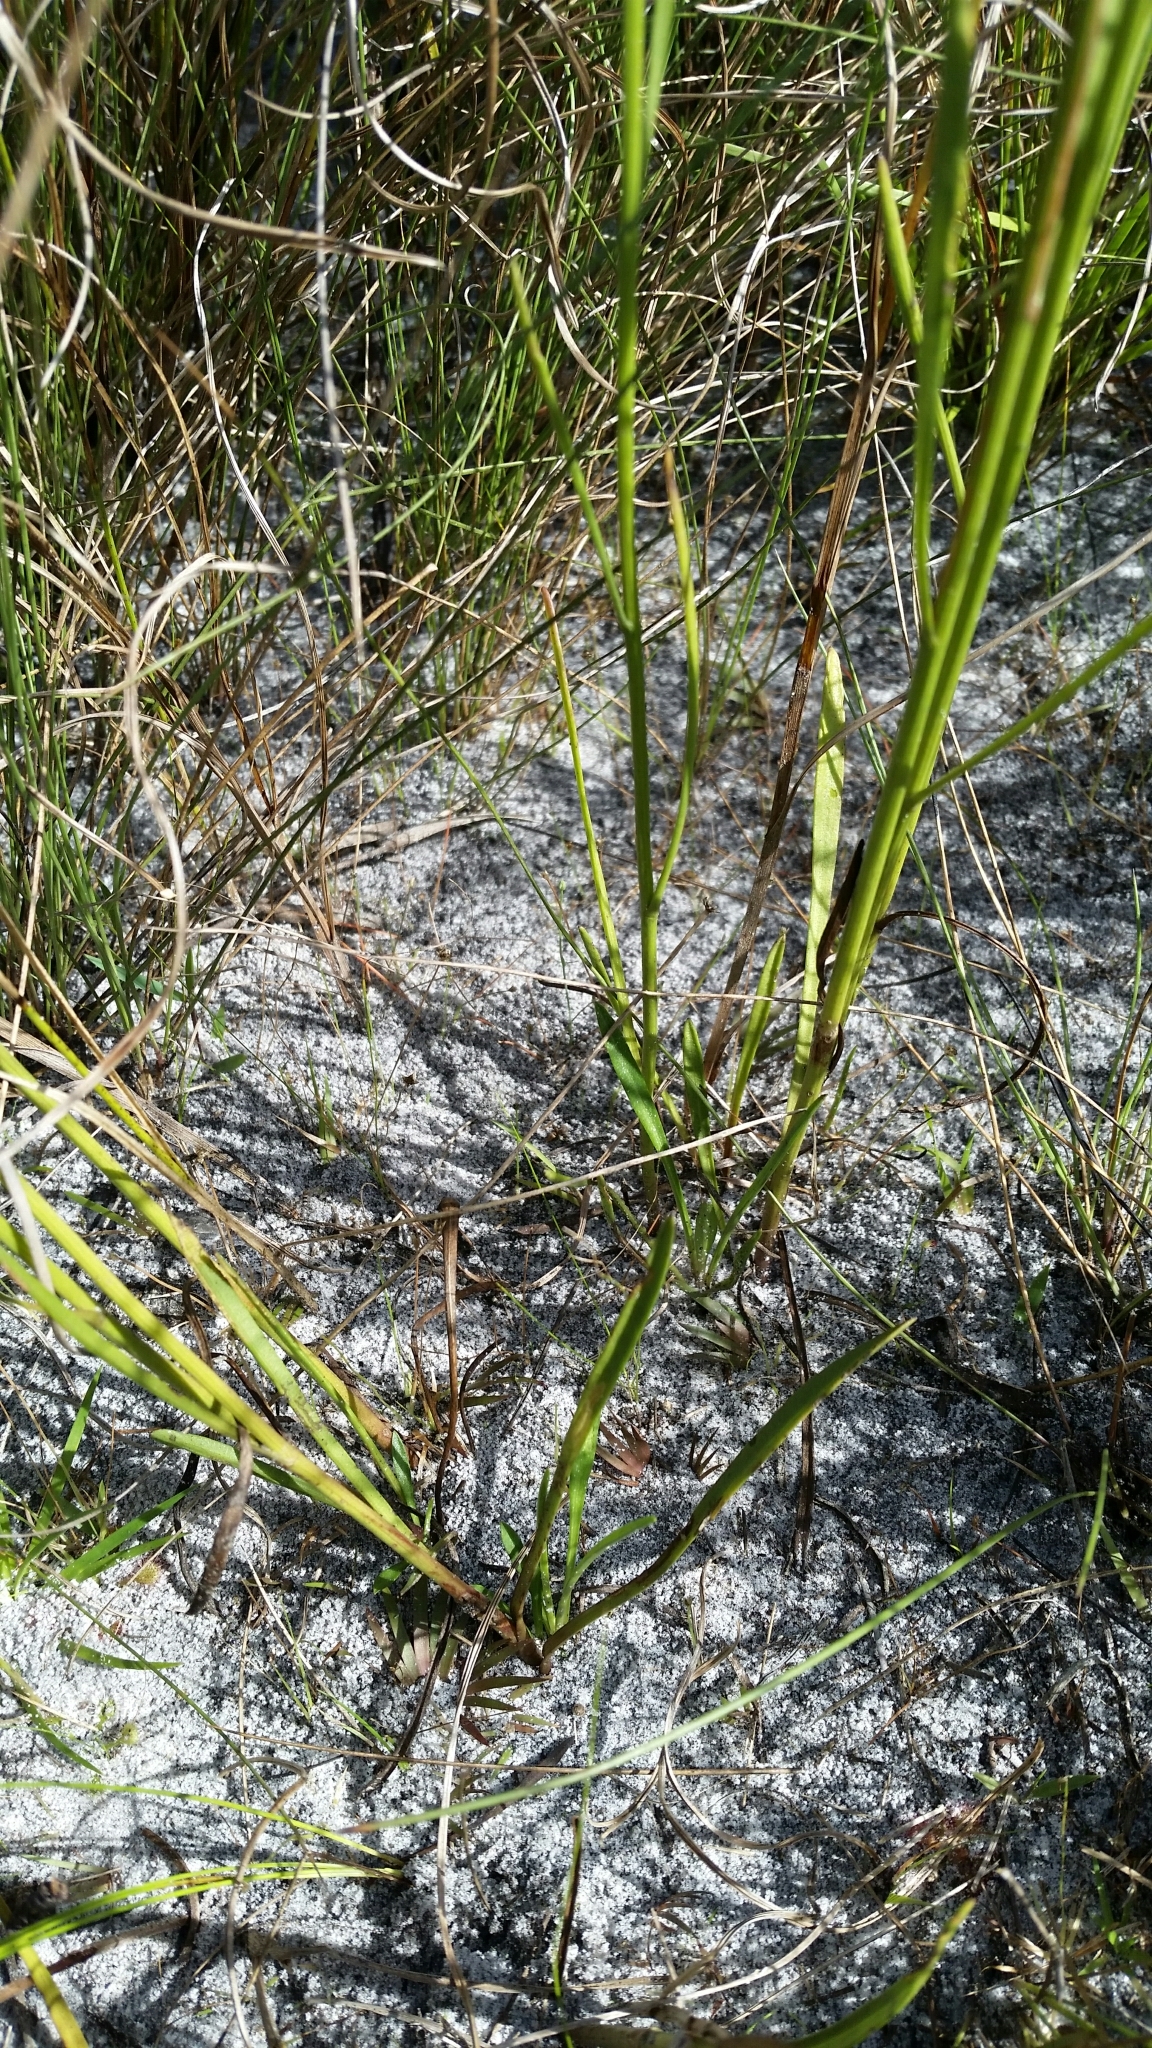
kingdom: Plantae
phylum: Tracheophyta
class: Magnoliopsida
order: Asterales
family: Asteraceae
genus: Bigelowia
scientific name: Bigelowia australis
